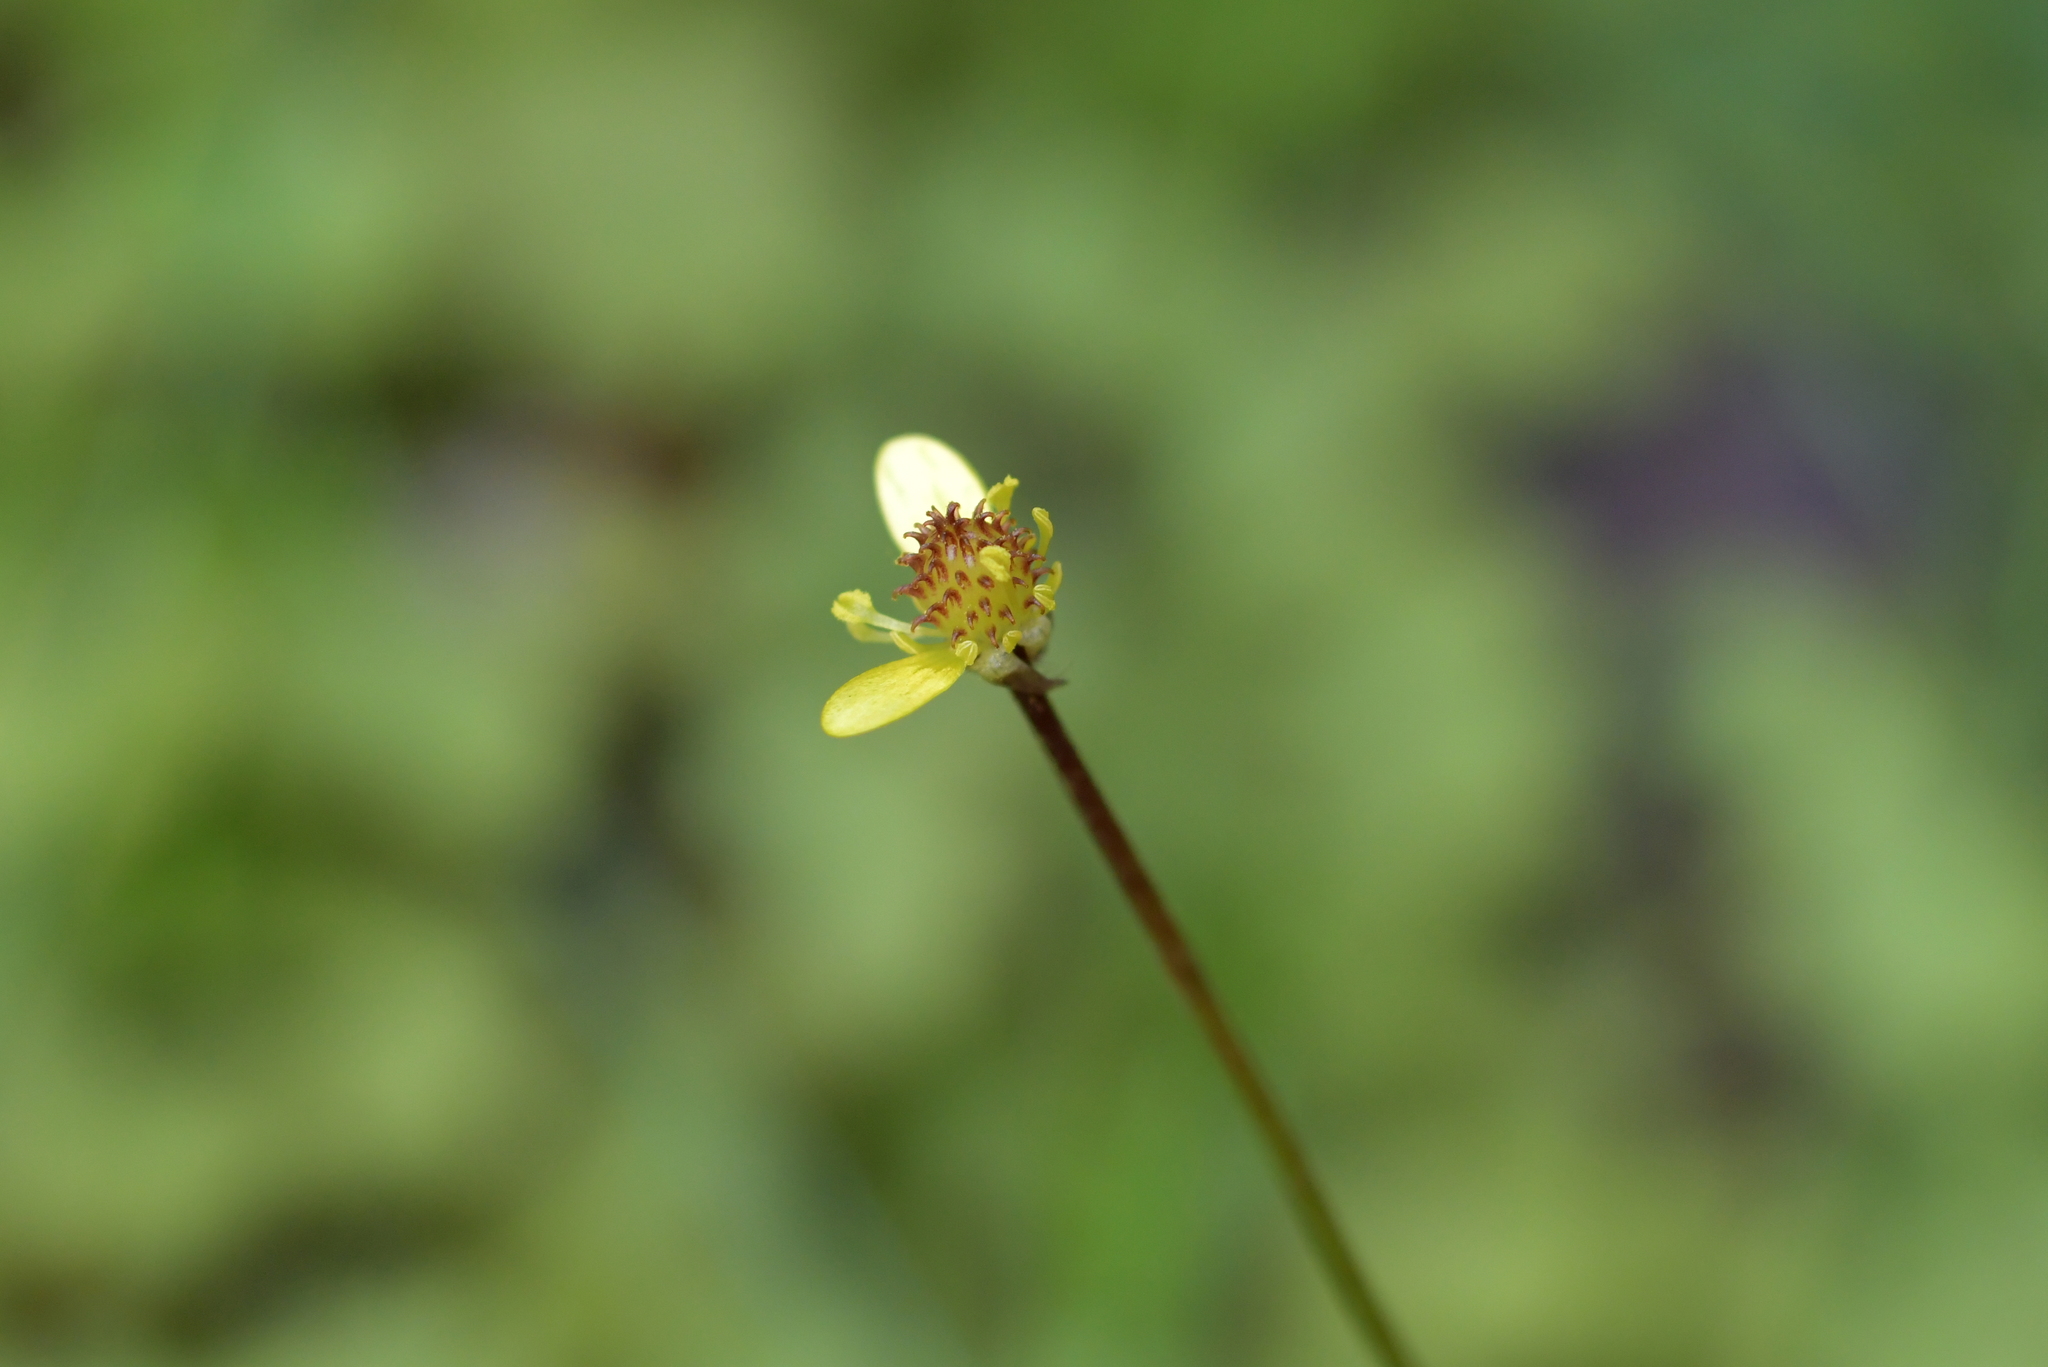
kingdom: Plantae
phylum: Tracheophyta
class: Magnoliopsida
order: Ranunculales
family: Ranunculaceae
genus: Ranunculus
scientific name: Ranunculus reflexus
